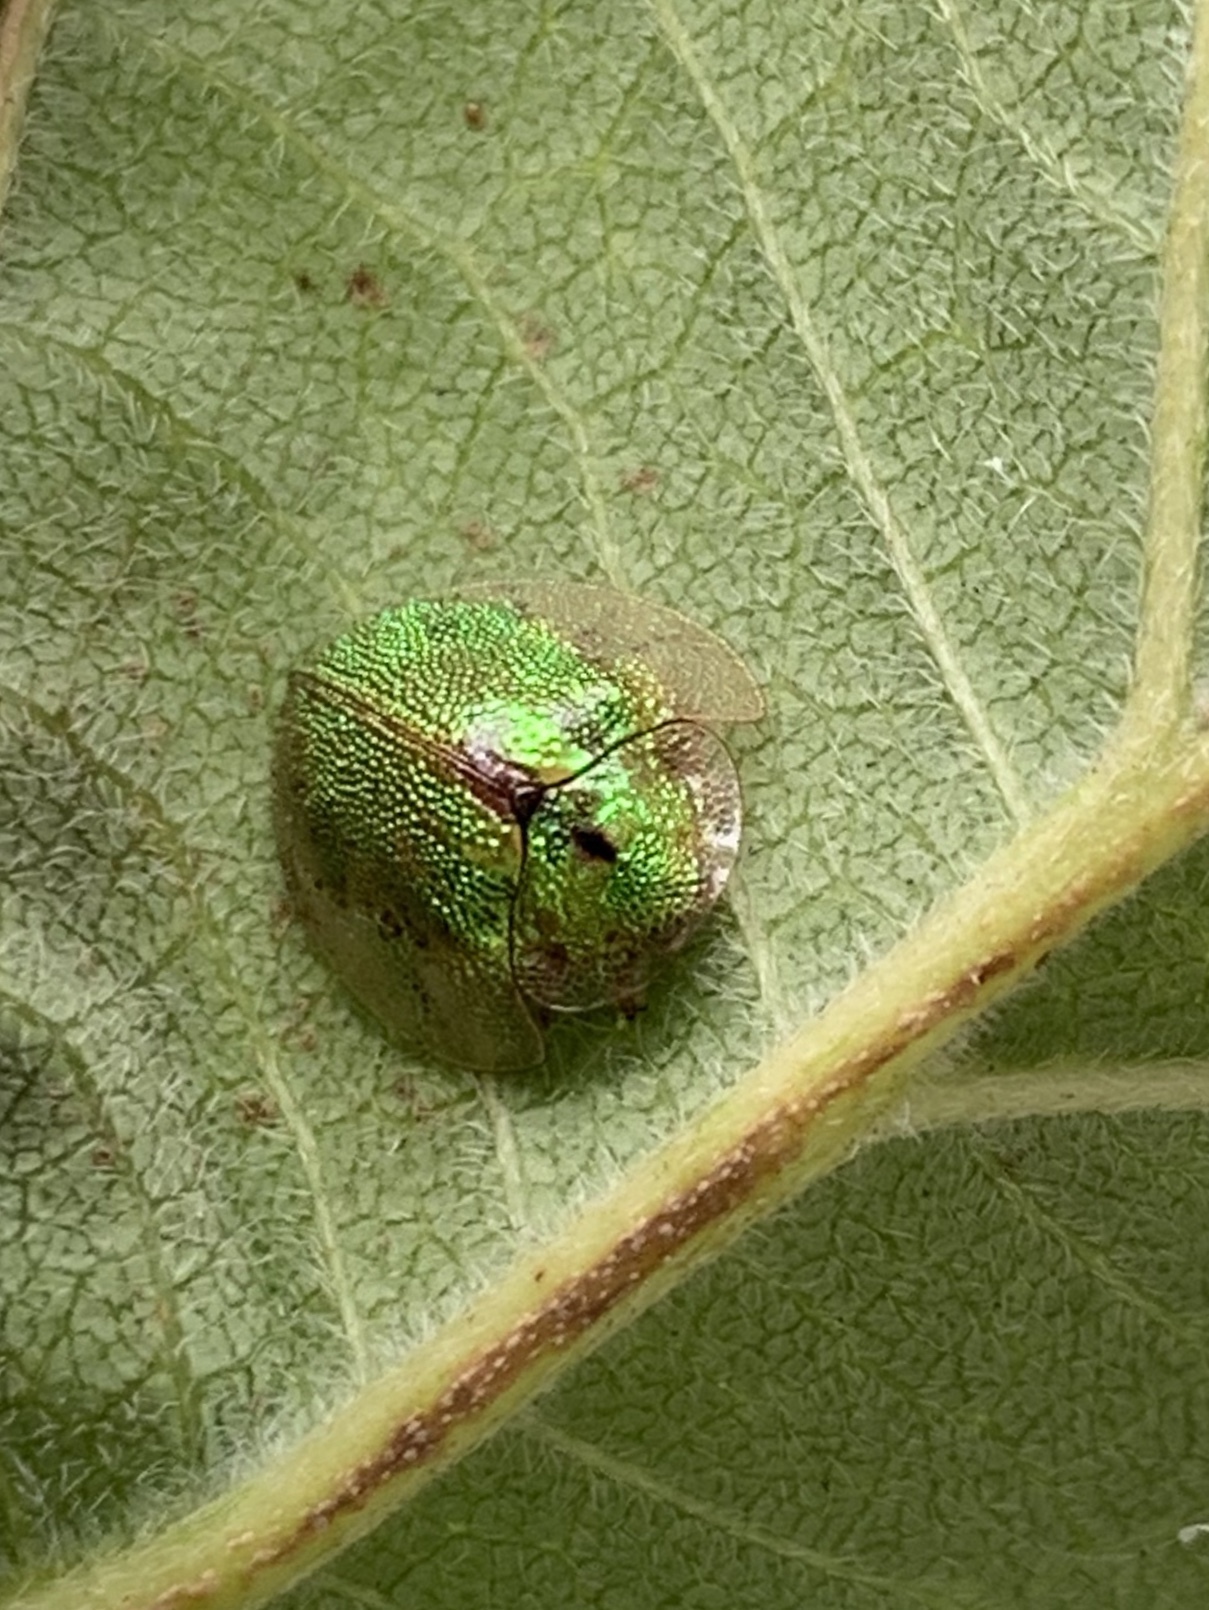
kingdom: Animalia
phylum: Arthropoda
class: Insecta
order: Coleoptera
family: Chrysomelidae
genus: Eurypepla
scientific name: Eurypepla calochroma
